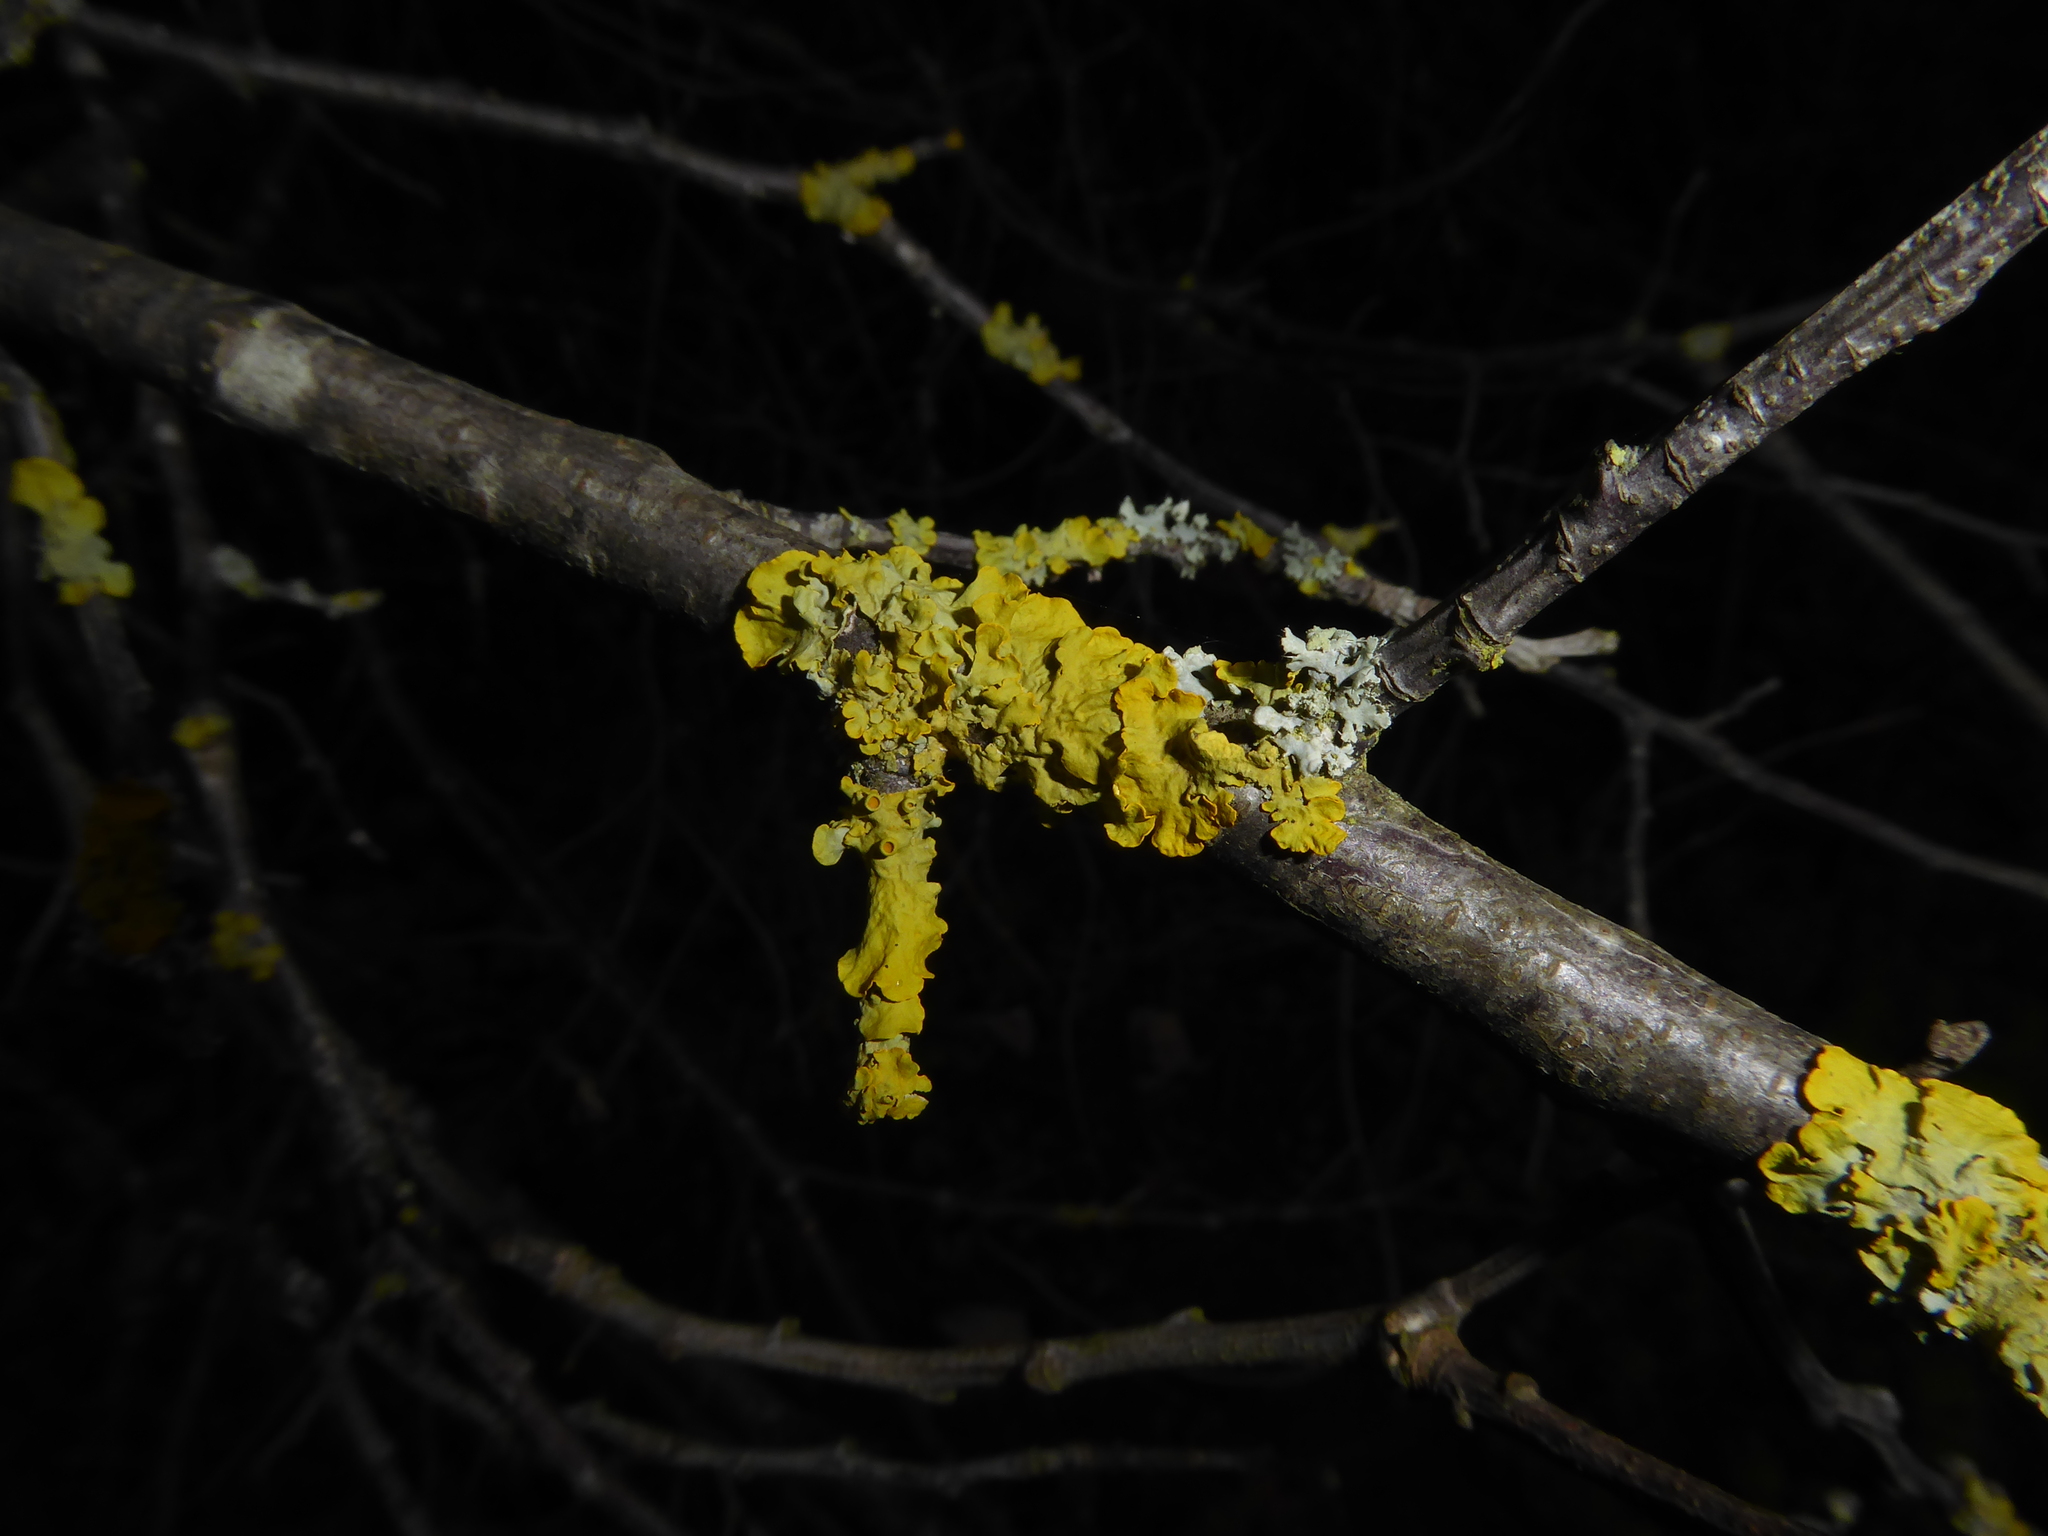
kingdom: Fungi
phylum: Ascomycota
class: Lecanoromycetes
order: Teloschistales
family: Teloschistaceae
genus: Xanthoria
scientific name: Xanthoria parietina
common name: Common orange lichen
